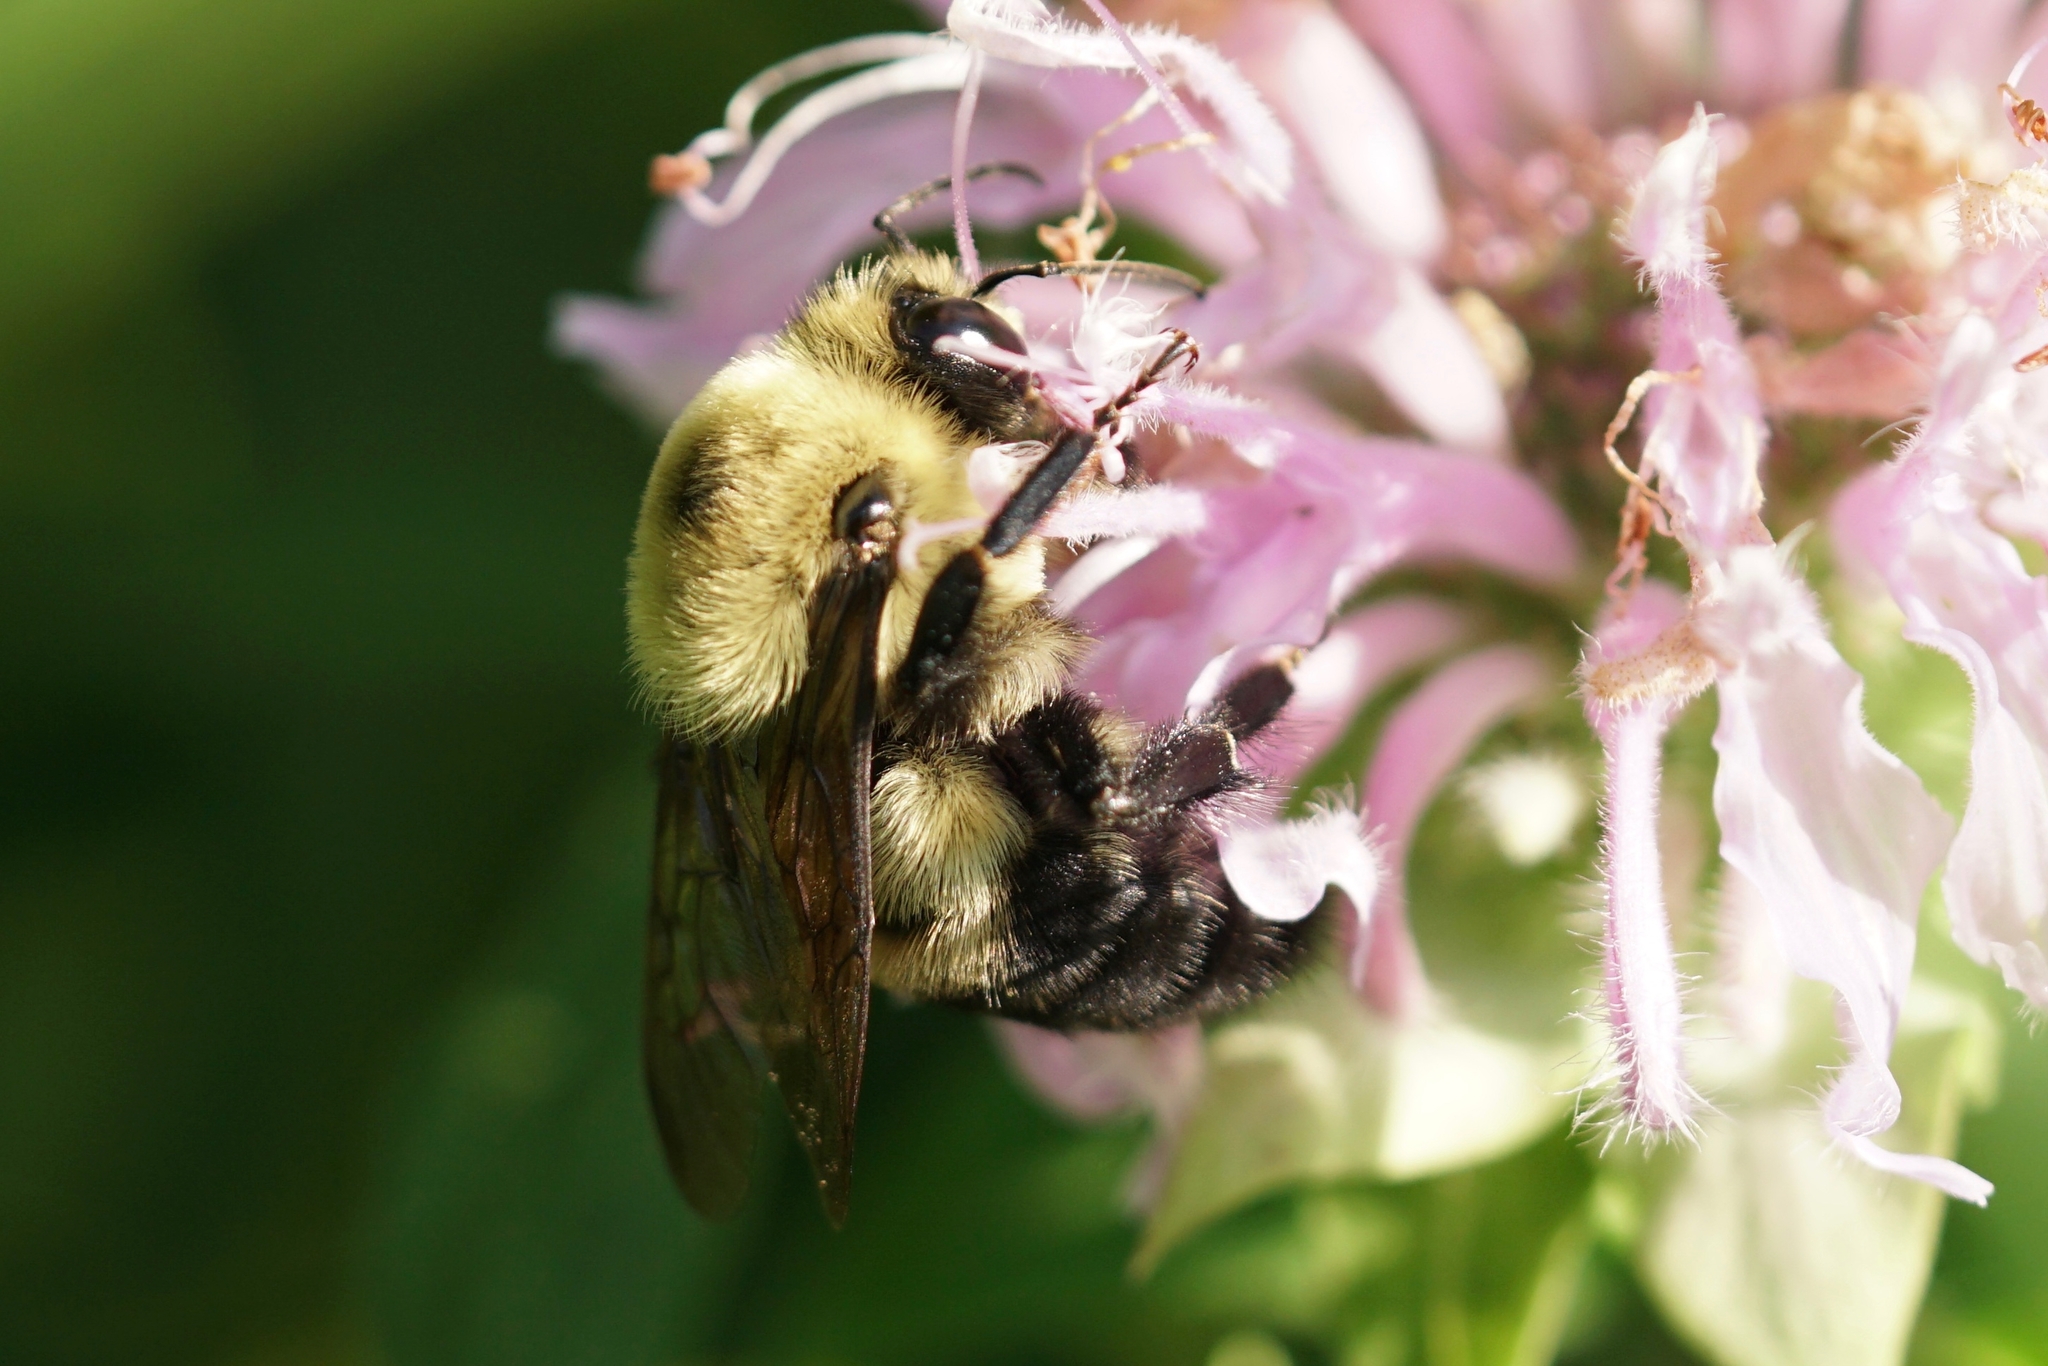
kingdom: Animalia
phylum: Arthropoda
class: Insecta
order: Hymenoptera
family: Apidae
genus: Bombus
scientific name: Bombus griseocollis
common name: Brown-belted bumble bee
